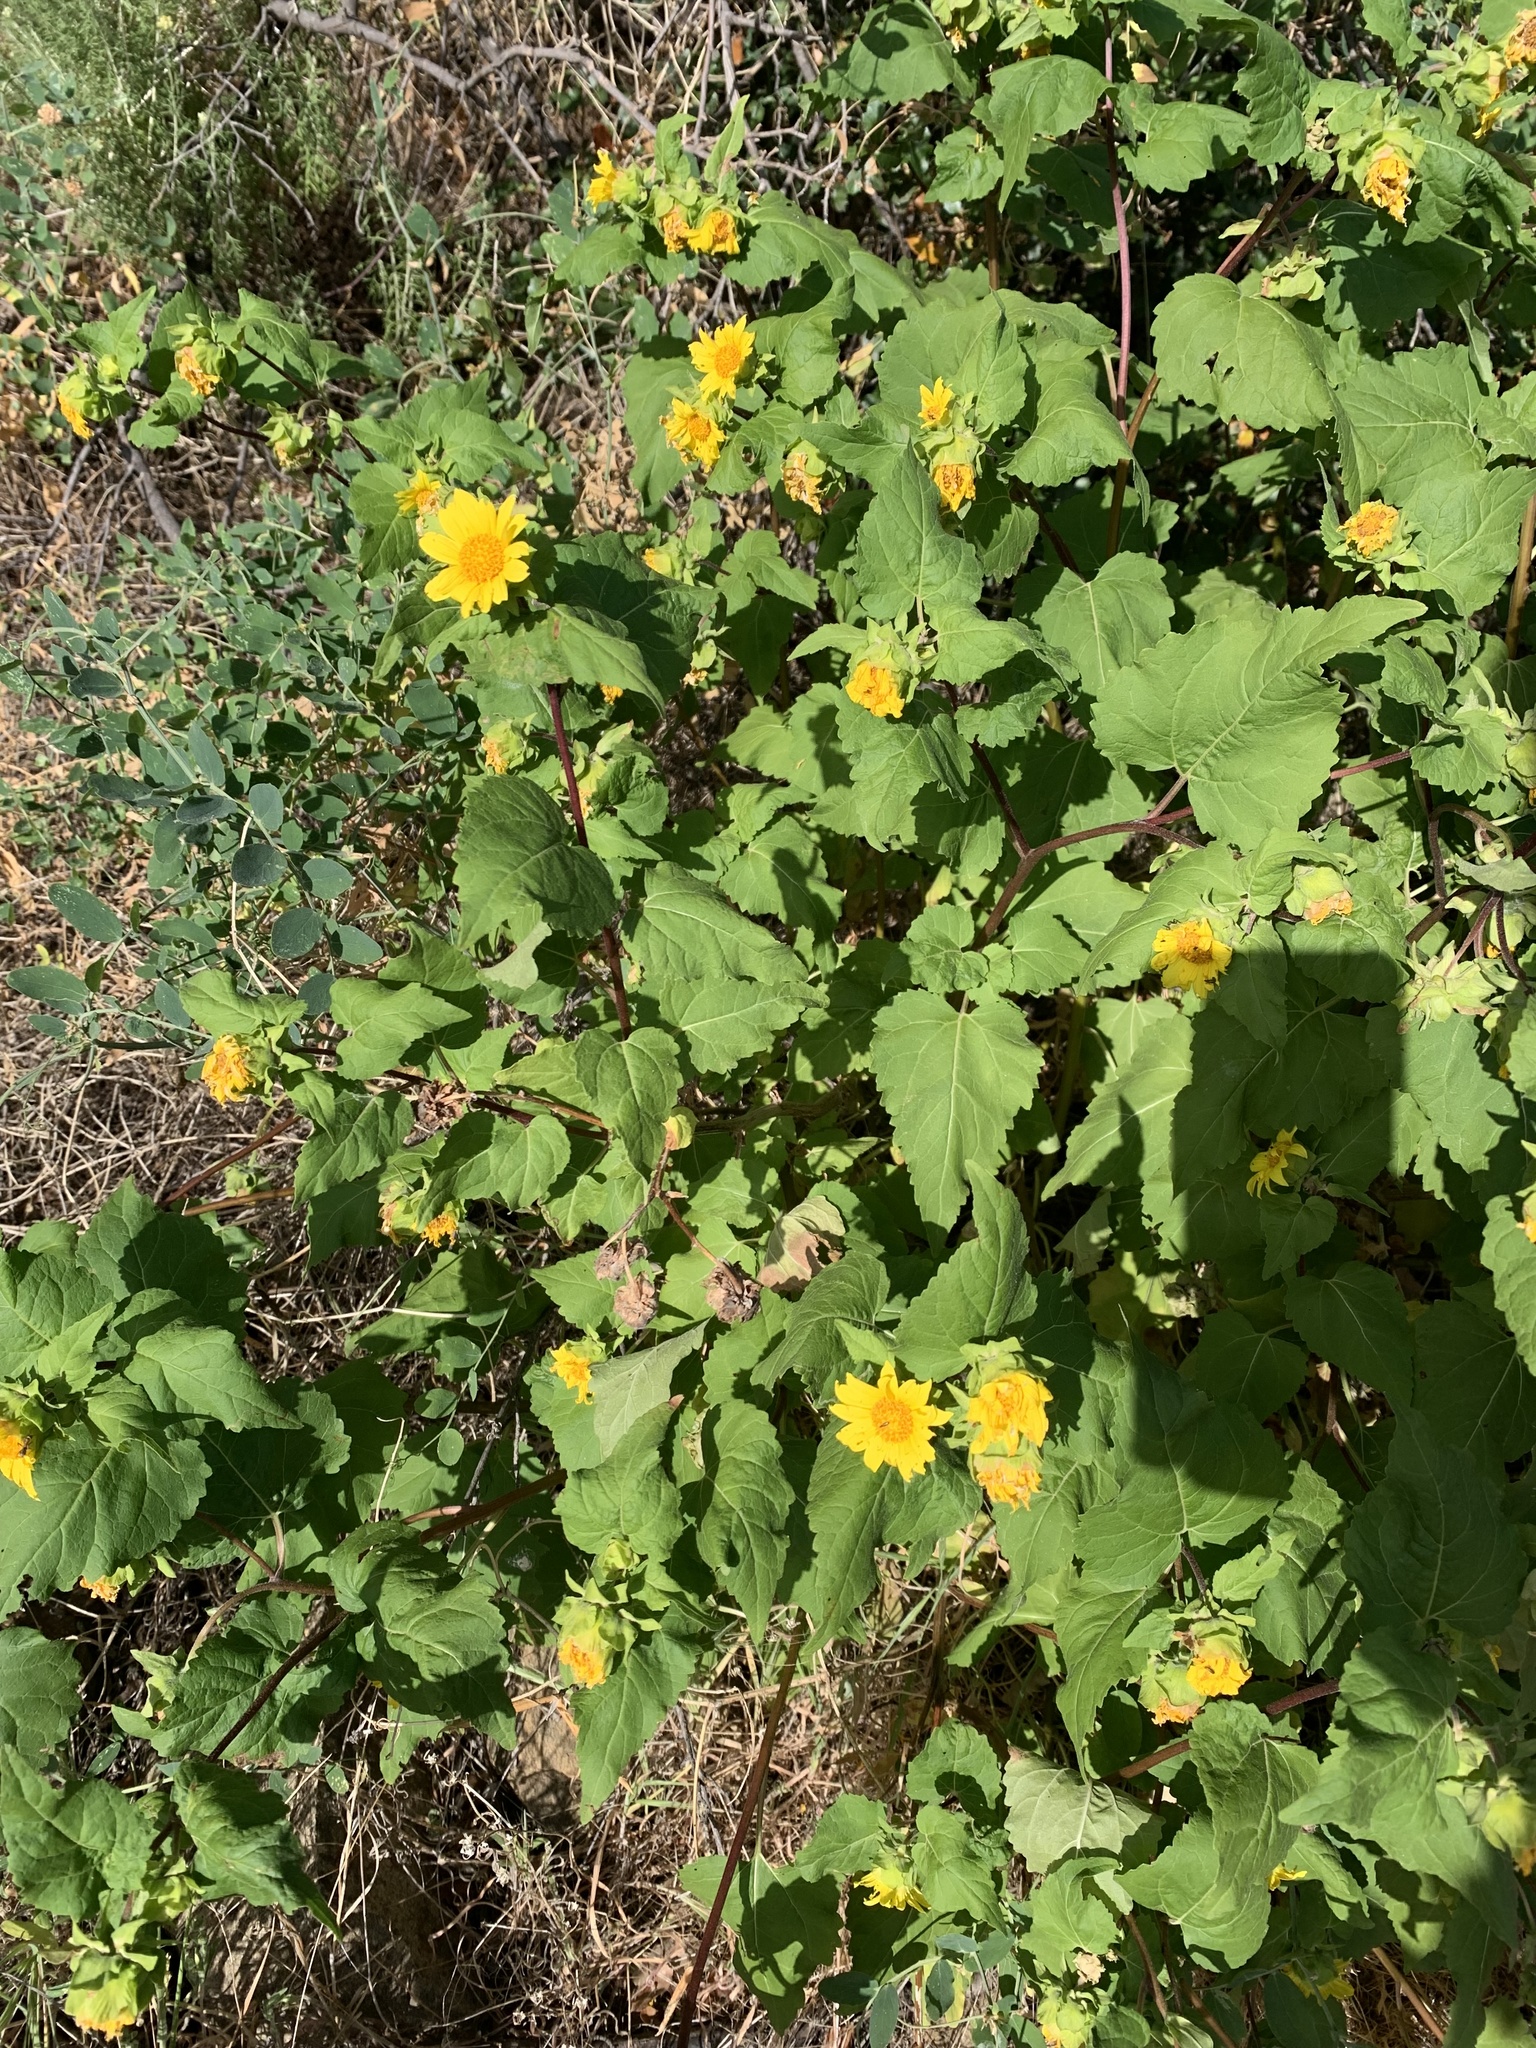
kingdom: Plantae
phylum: Tracheophyta
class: Magnoliopsida
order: Asterales
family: Asteraceae
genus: Venegasia
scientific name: Venegasia carpesioides
